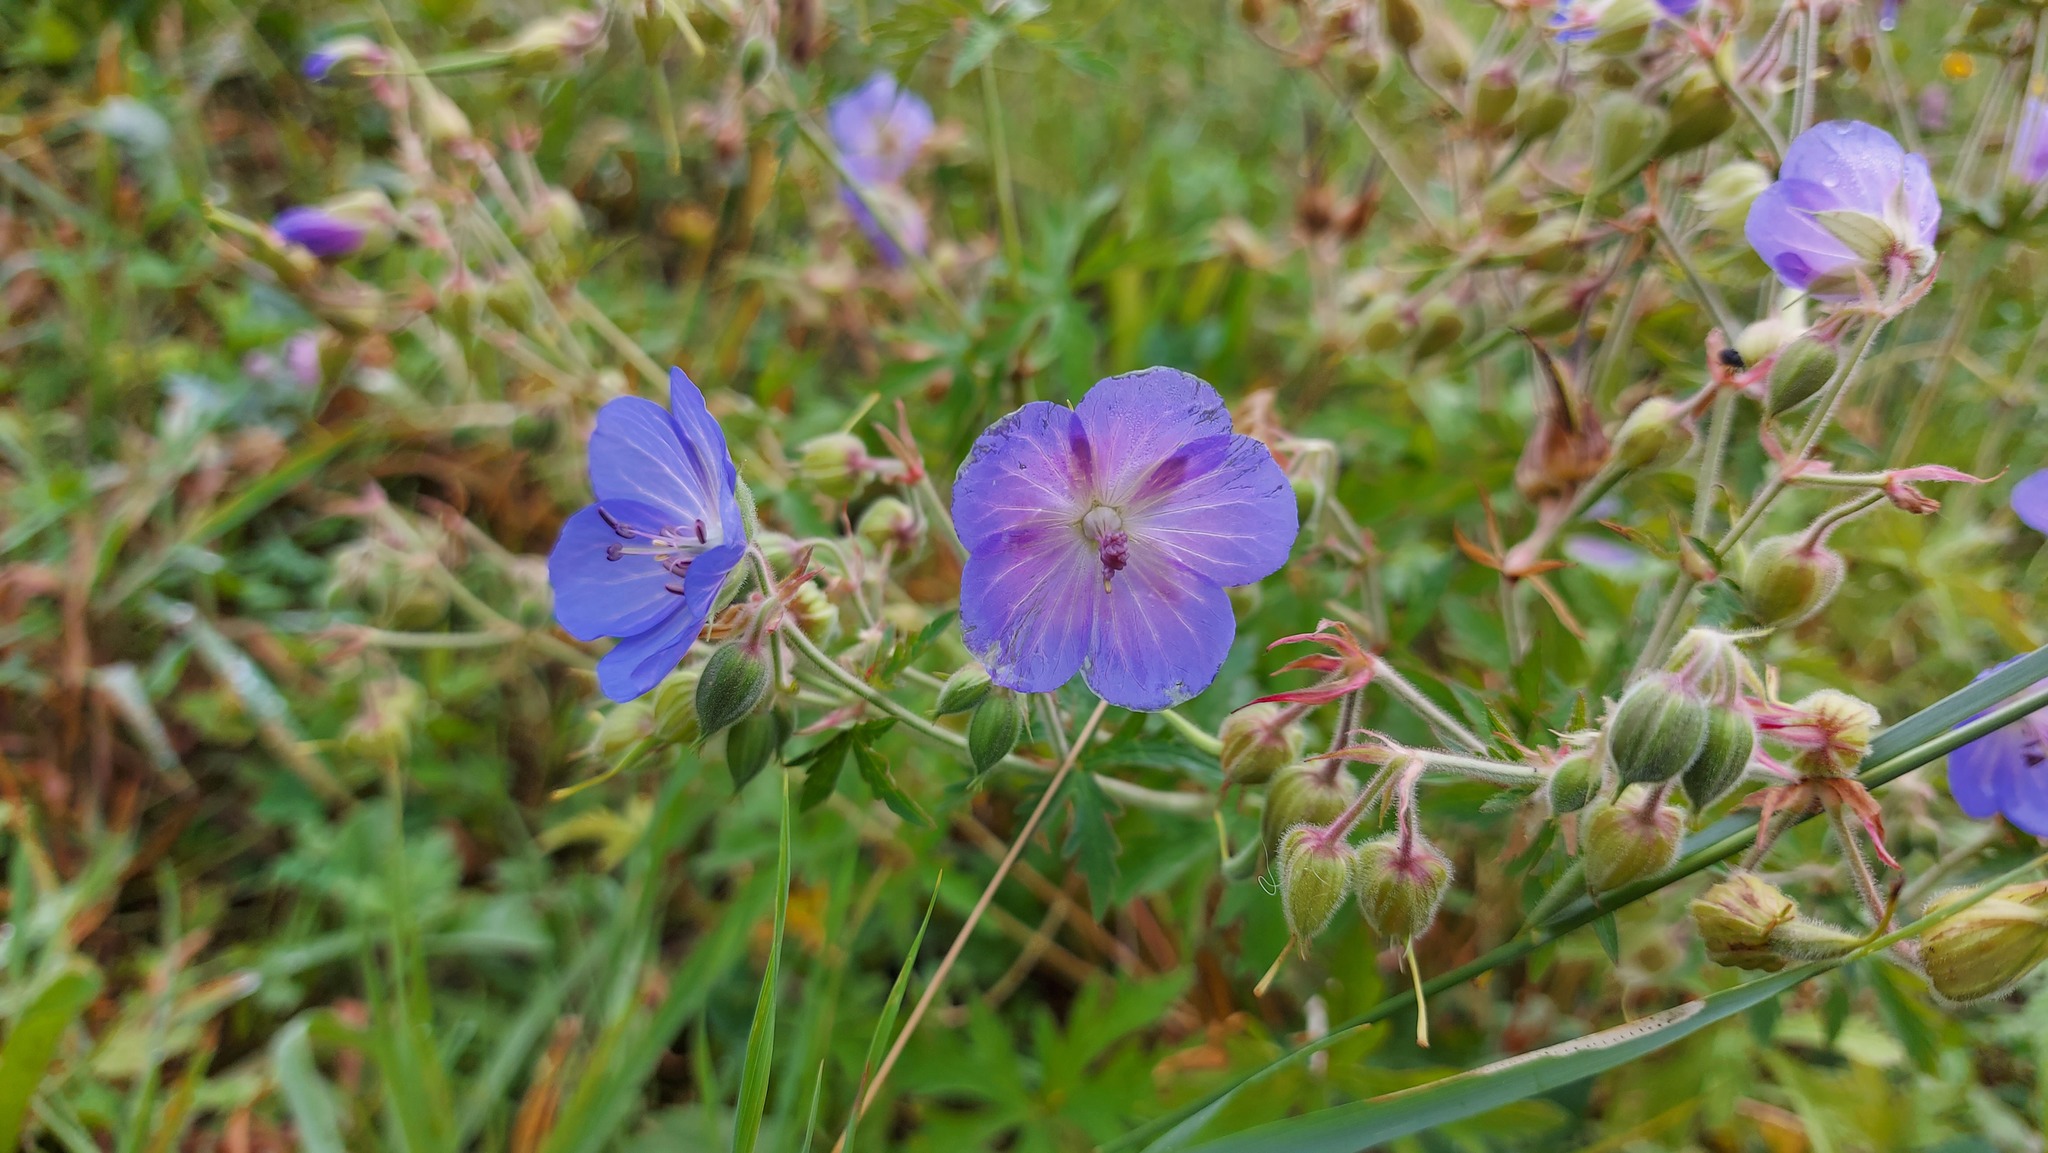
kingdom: Plantae
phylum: Tracheophyta
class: Magnoliopsida
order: Geraniales
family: Geraniaceae
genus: Geranium
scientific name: Geranium pratense
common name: Meadow crane's-bill
